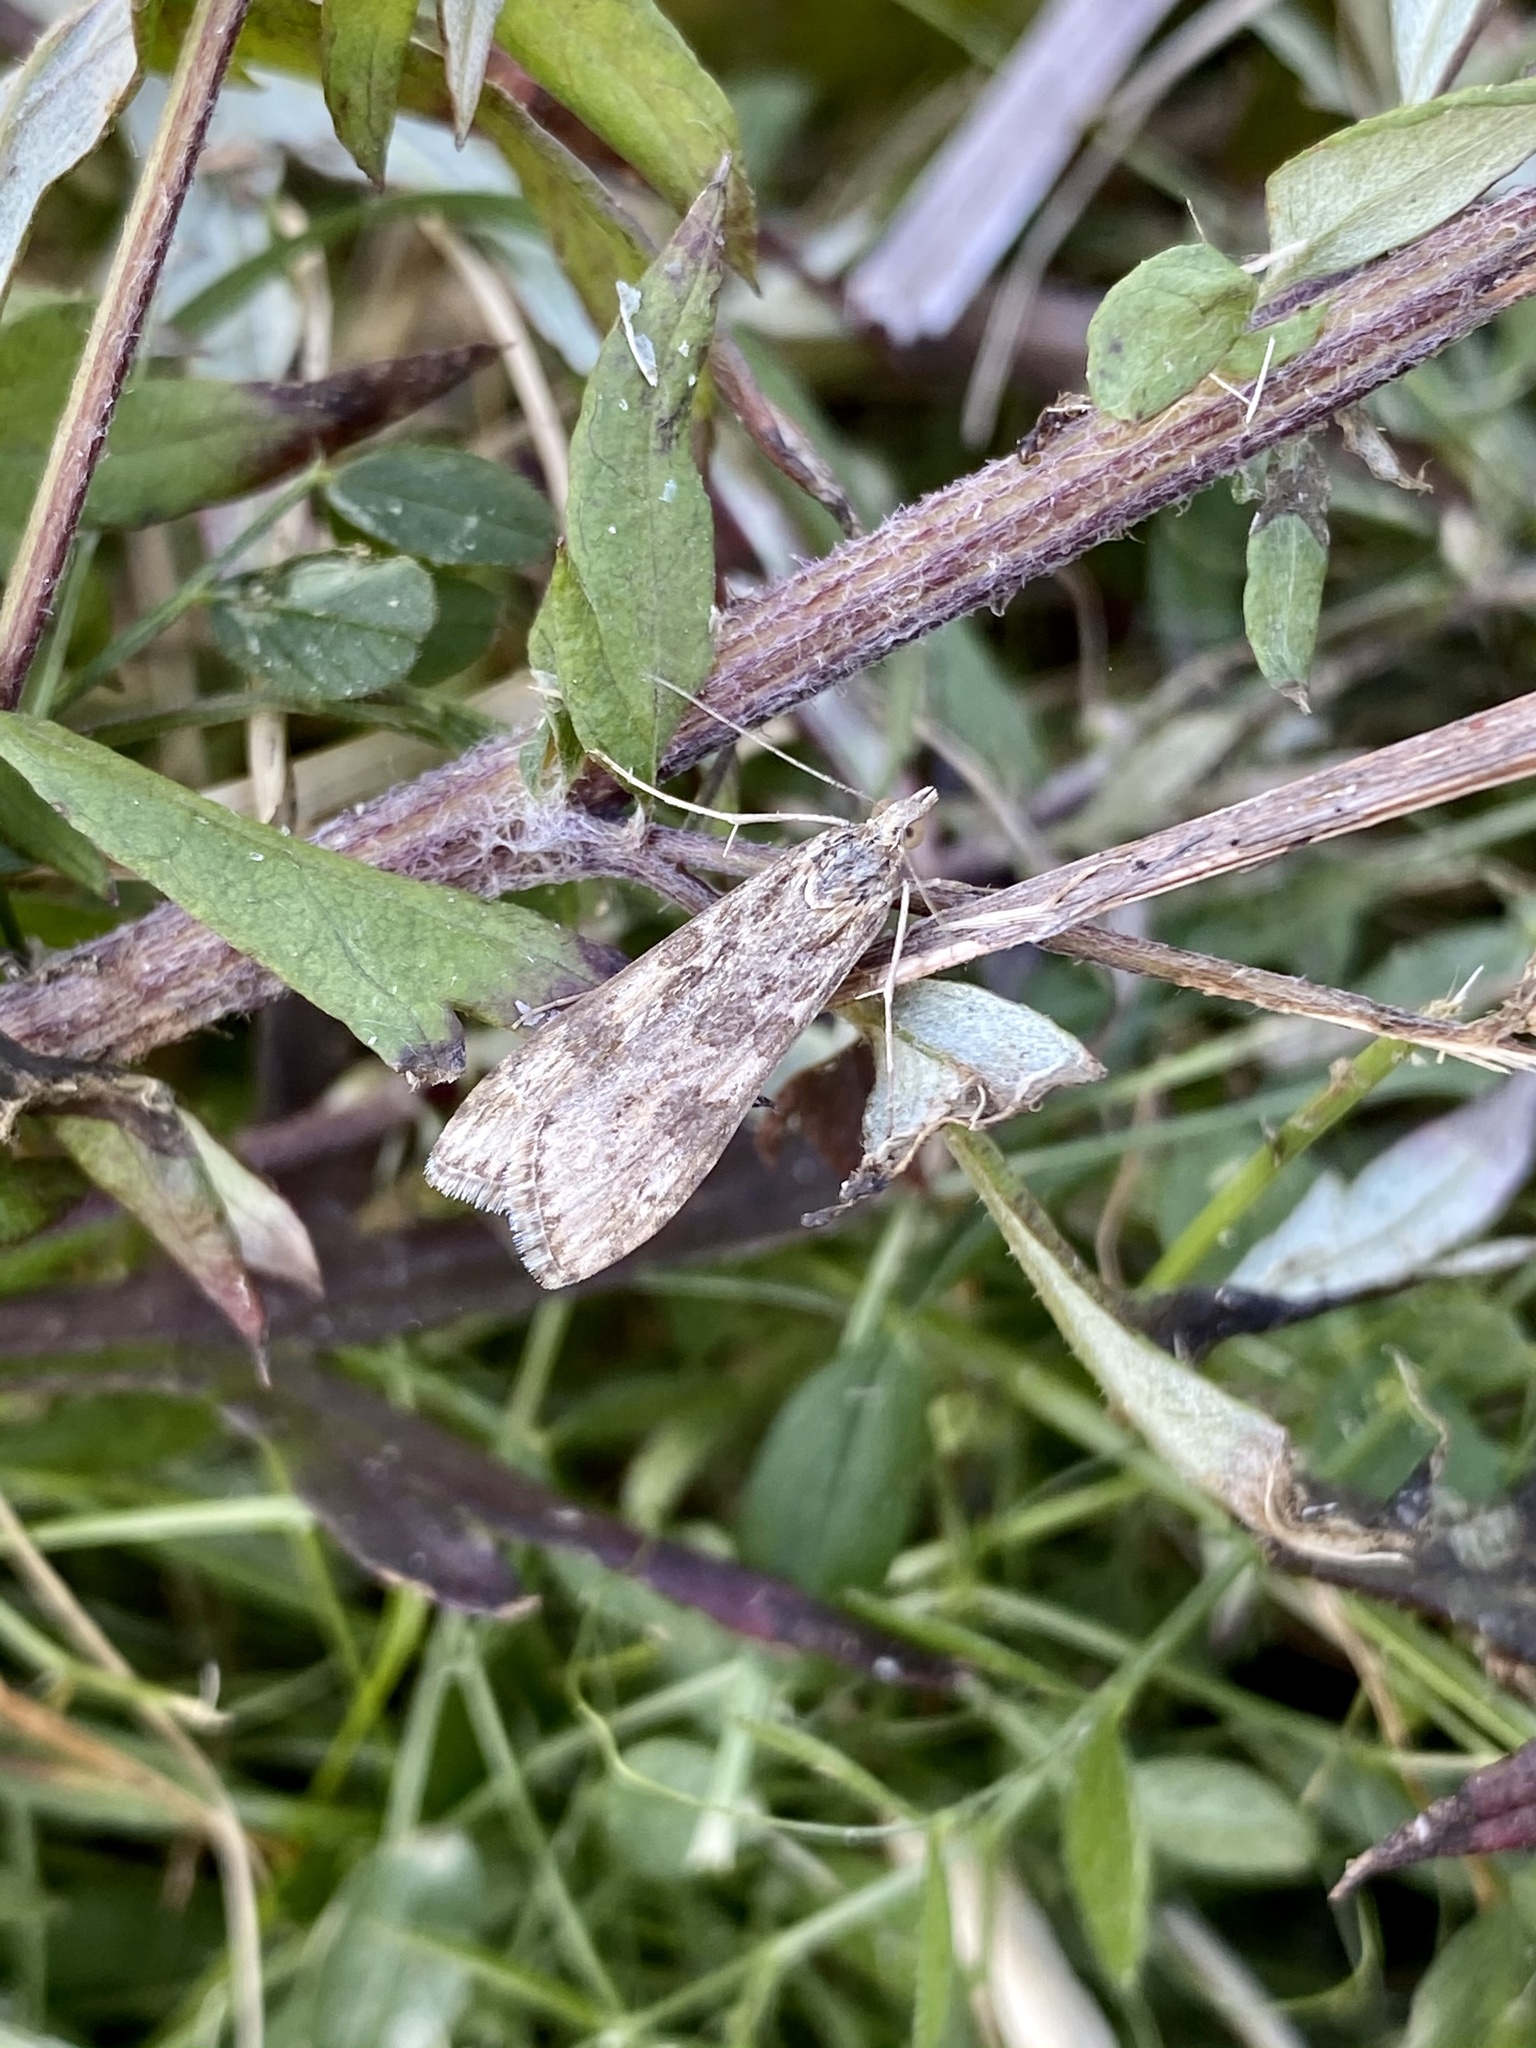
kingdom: Animalia
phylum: Arthropoda
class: Insecta
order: Lepidoptera
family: Crambidae
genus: Nomophila
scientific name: Nomophila noctuella
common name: Rush veneer
